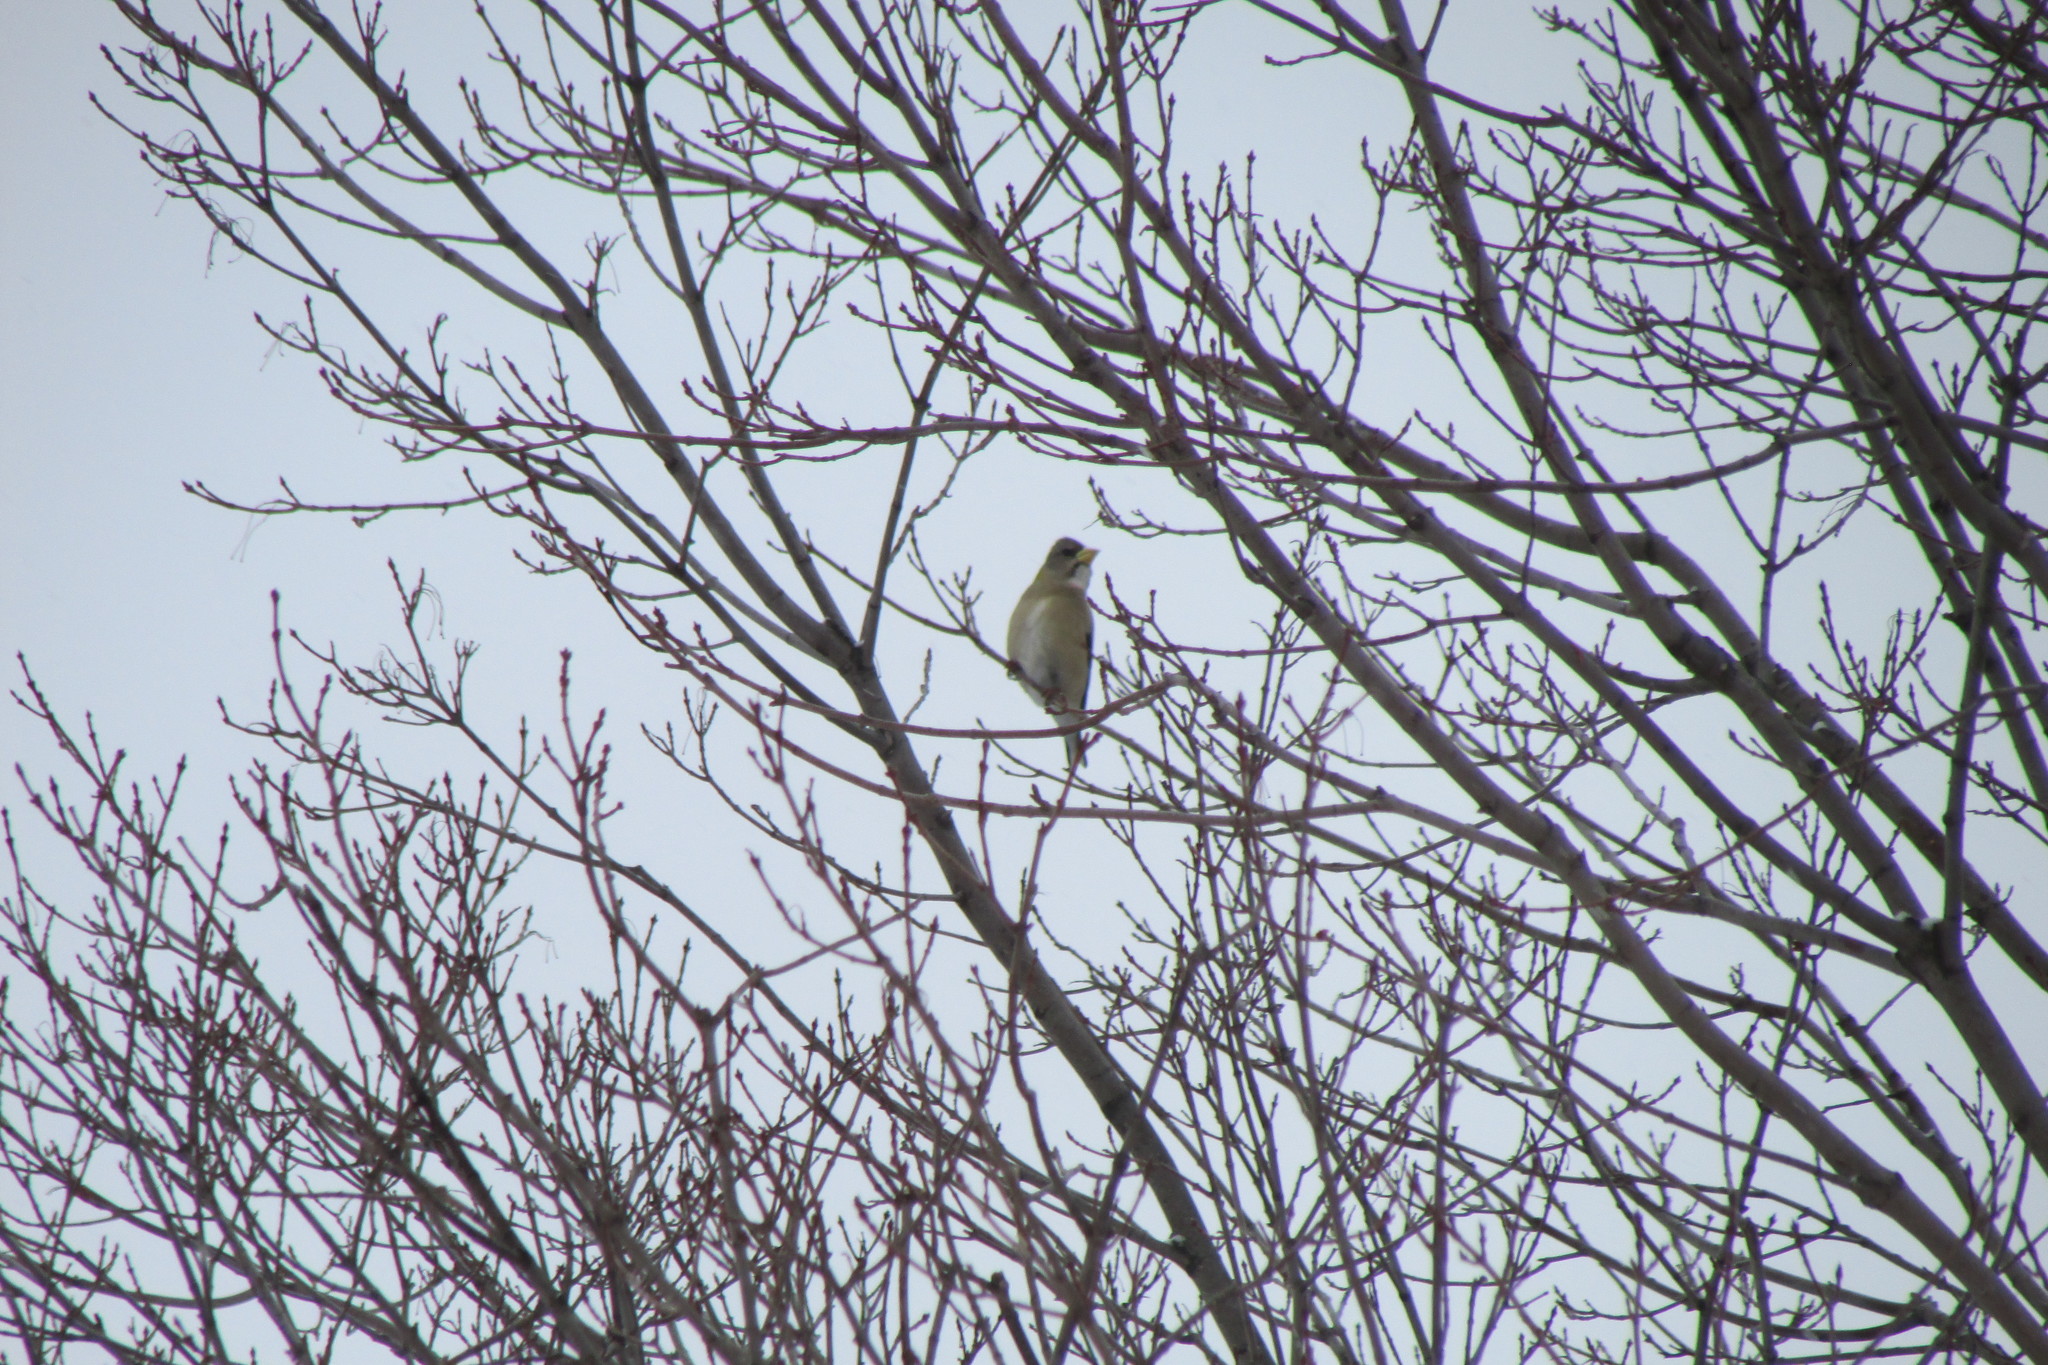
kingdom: Animalia
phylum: Chordata
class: Aves
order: Passeriformes
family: Fringillidae
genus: Hesperiphona
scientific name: Hesperiphona vespertina
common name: Evening grosbeak
